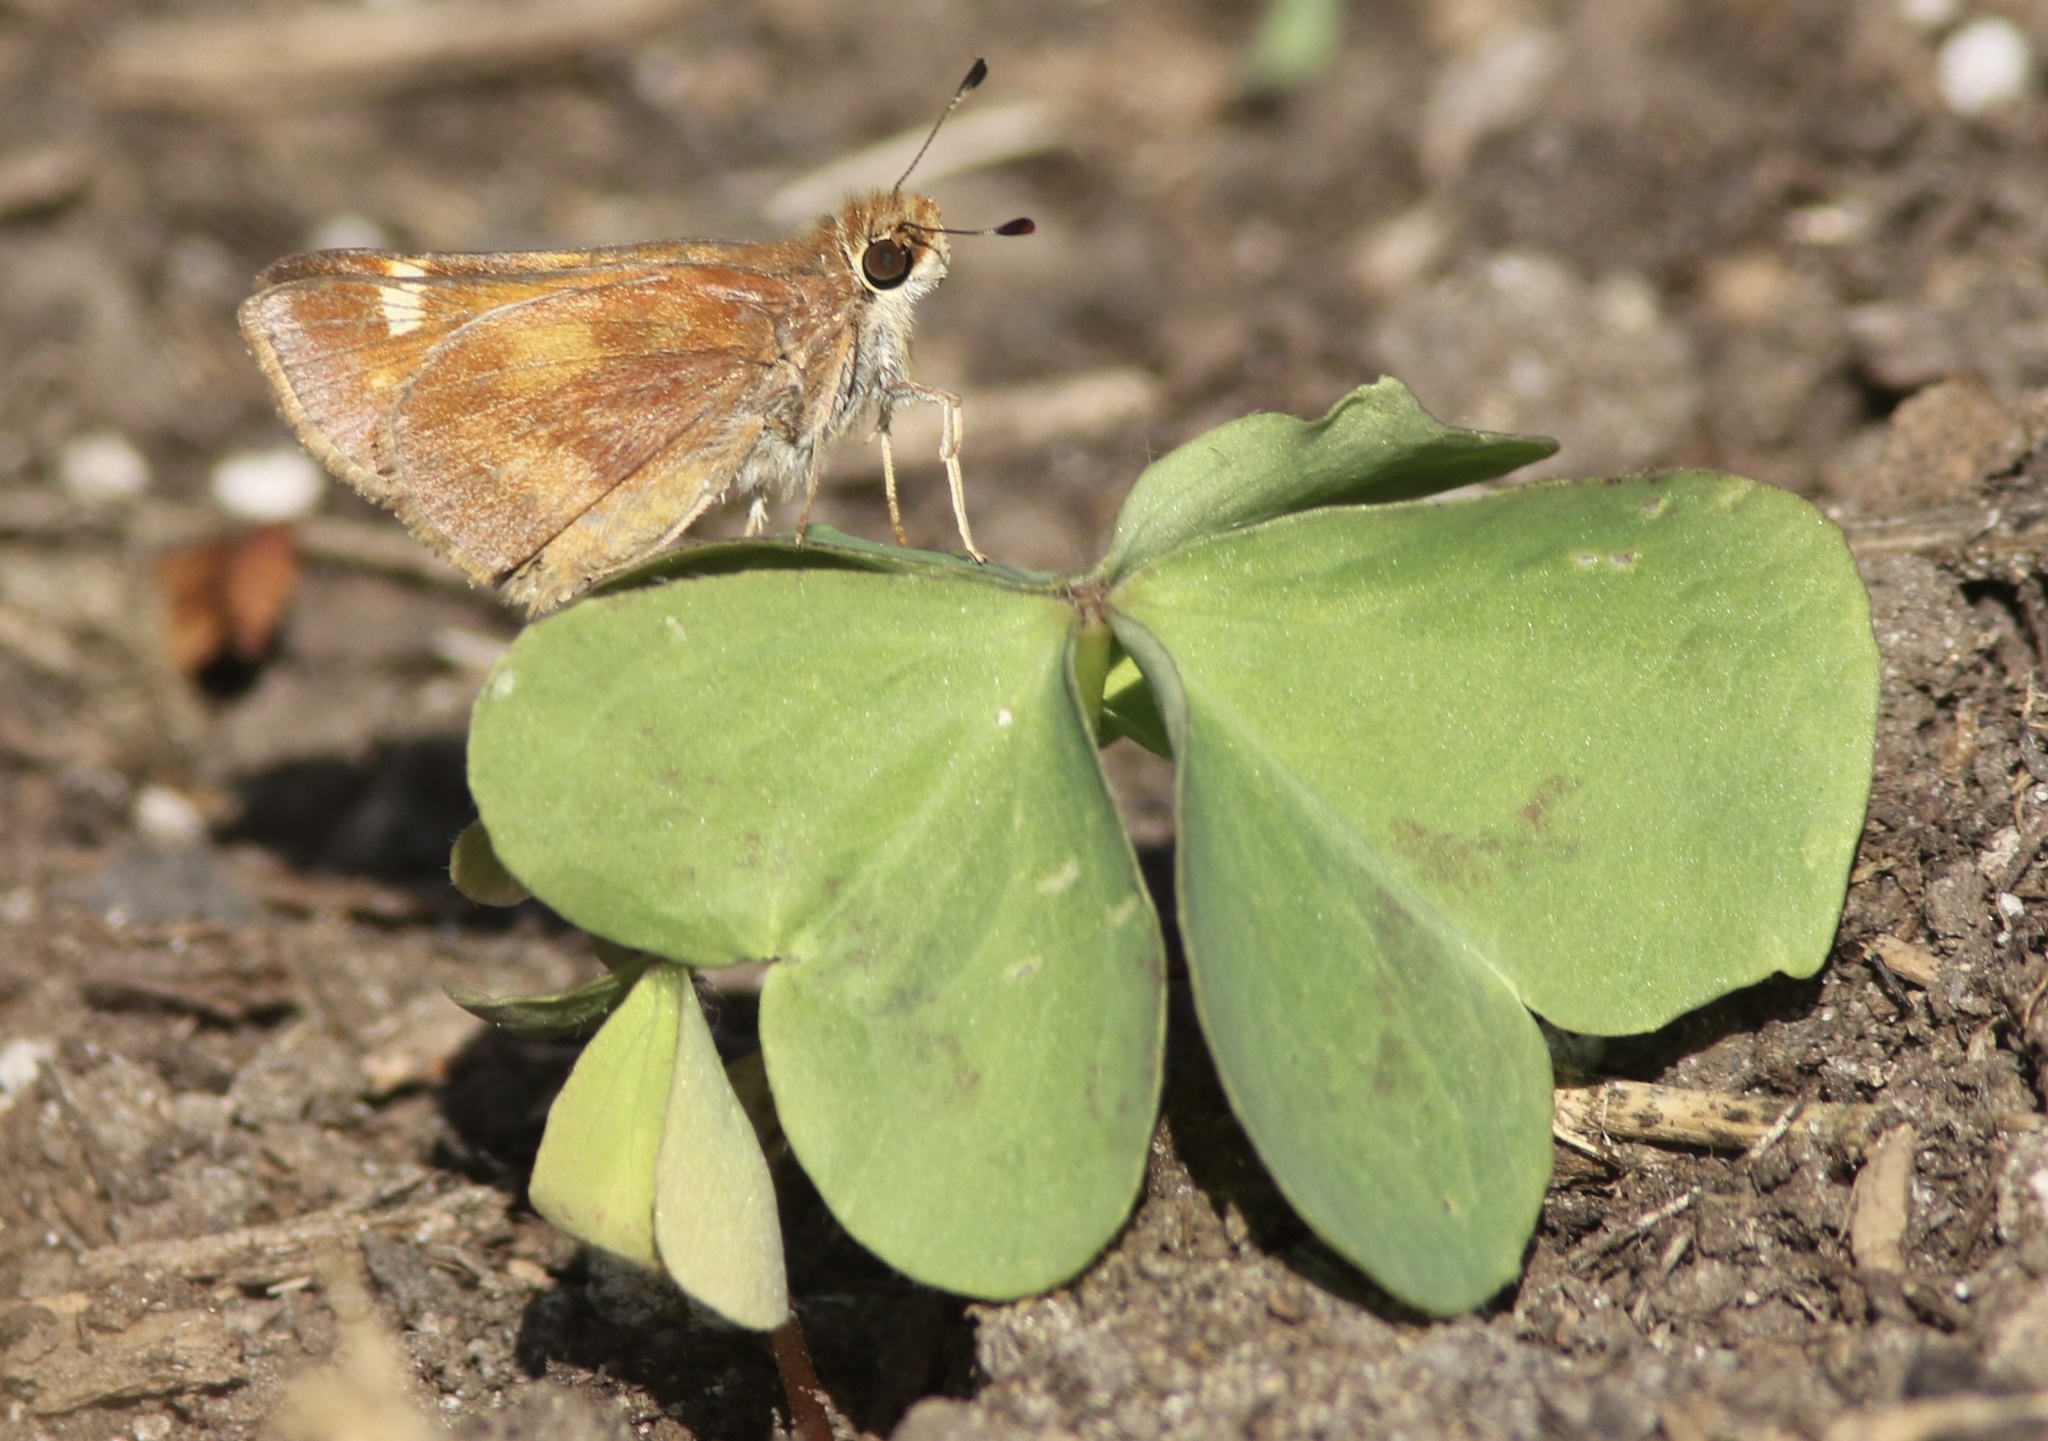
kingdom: Animalia
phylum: Arthropoda
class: Insecta
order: Lepidoptera
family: Hesperiidae
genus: Lon
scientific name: Lon melane
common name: Umber skipper
